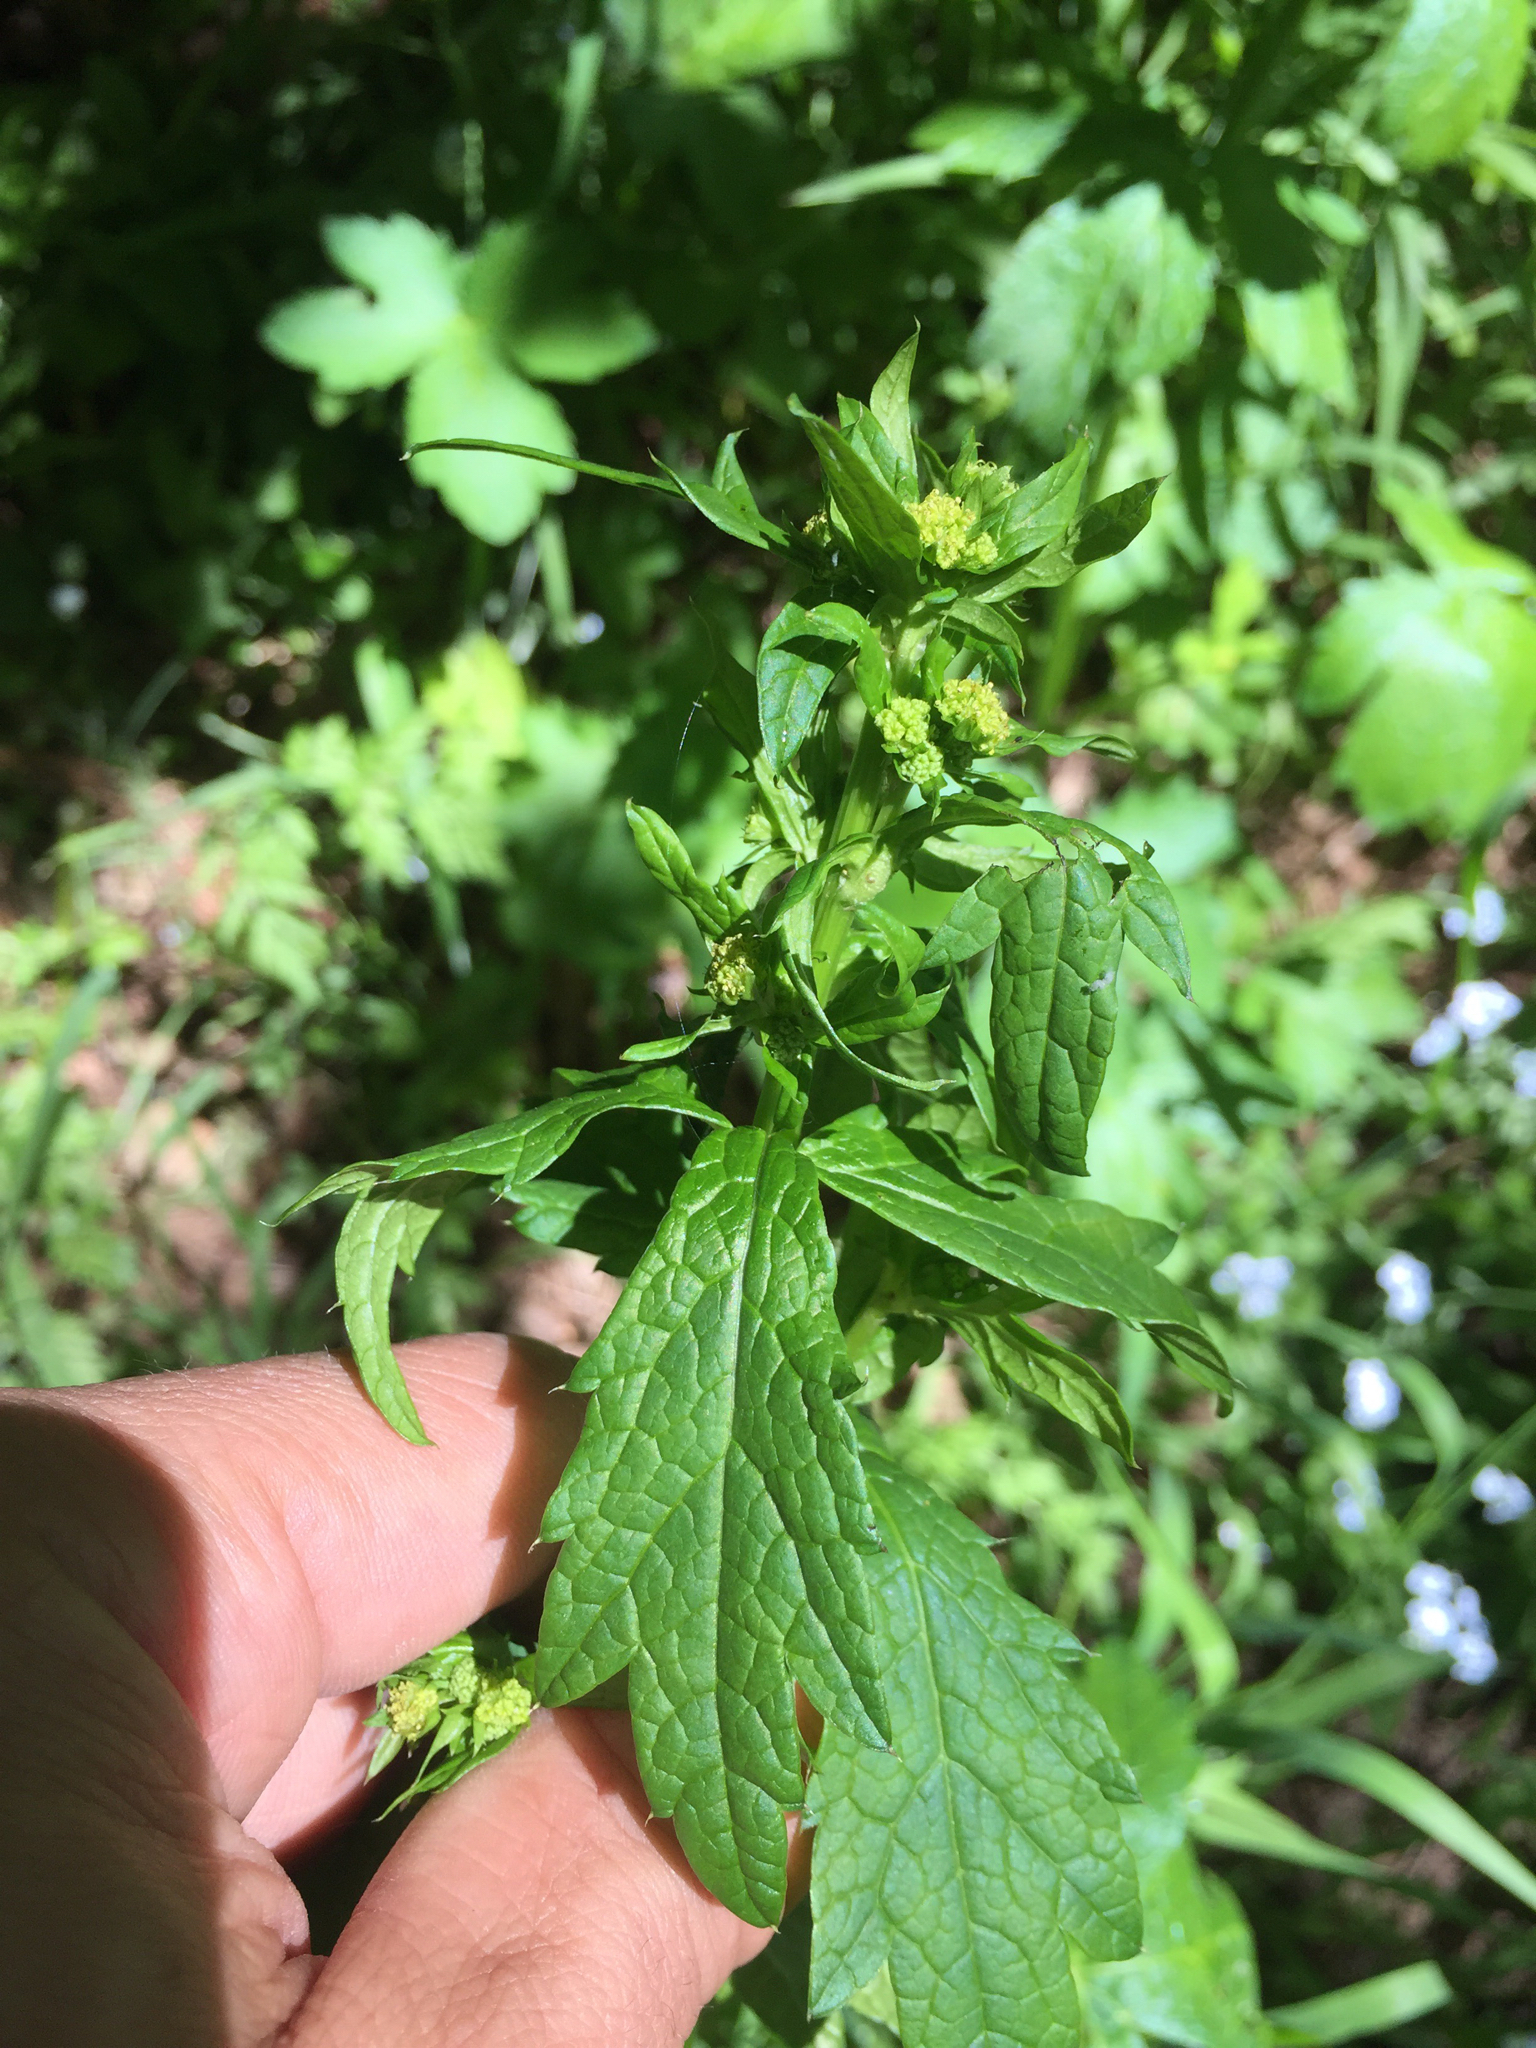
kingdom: Plantae
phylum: Tracheophyta
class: Magnoliopsida
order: Apiales
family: Apiaceae
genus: Sanicula
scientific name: Sanicula crassicaulis
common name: Western snakeroot
